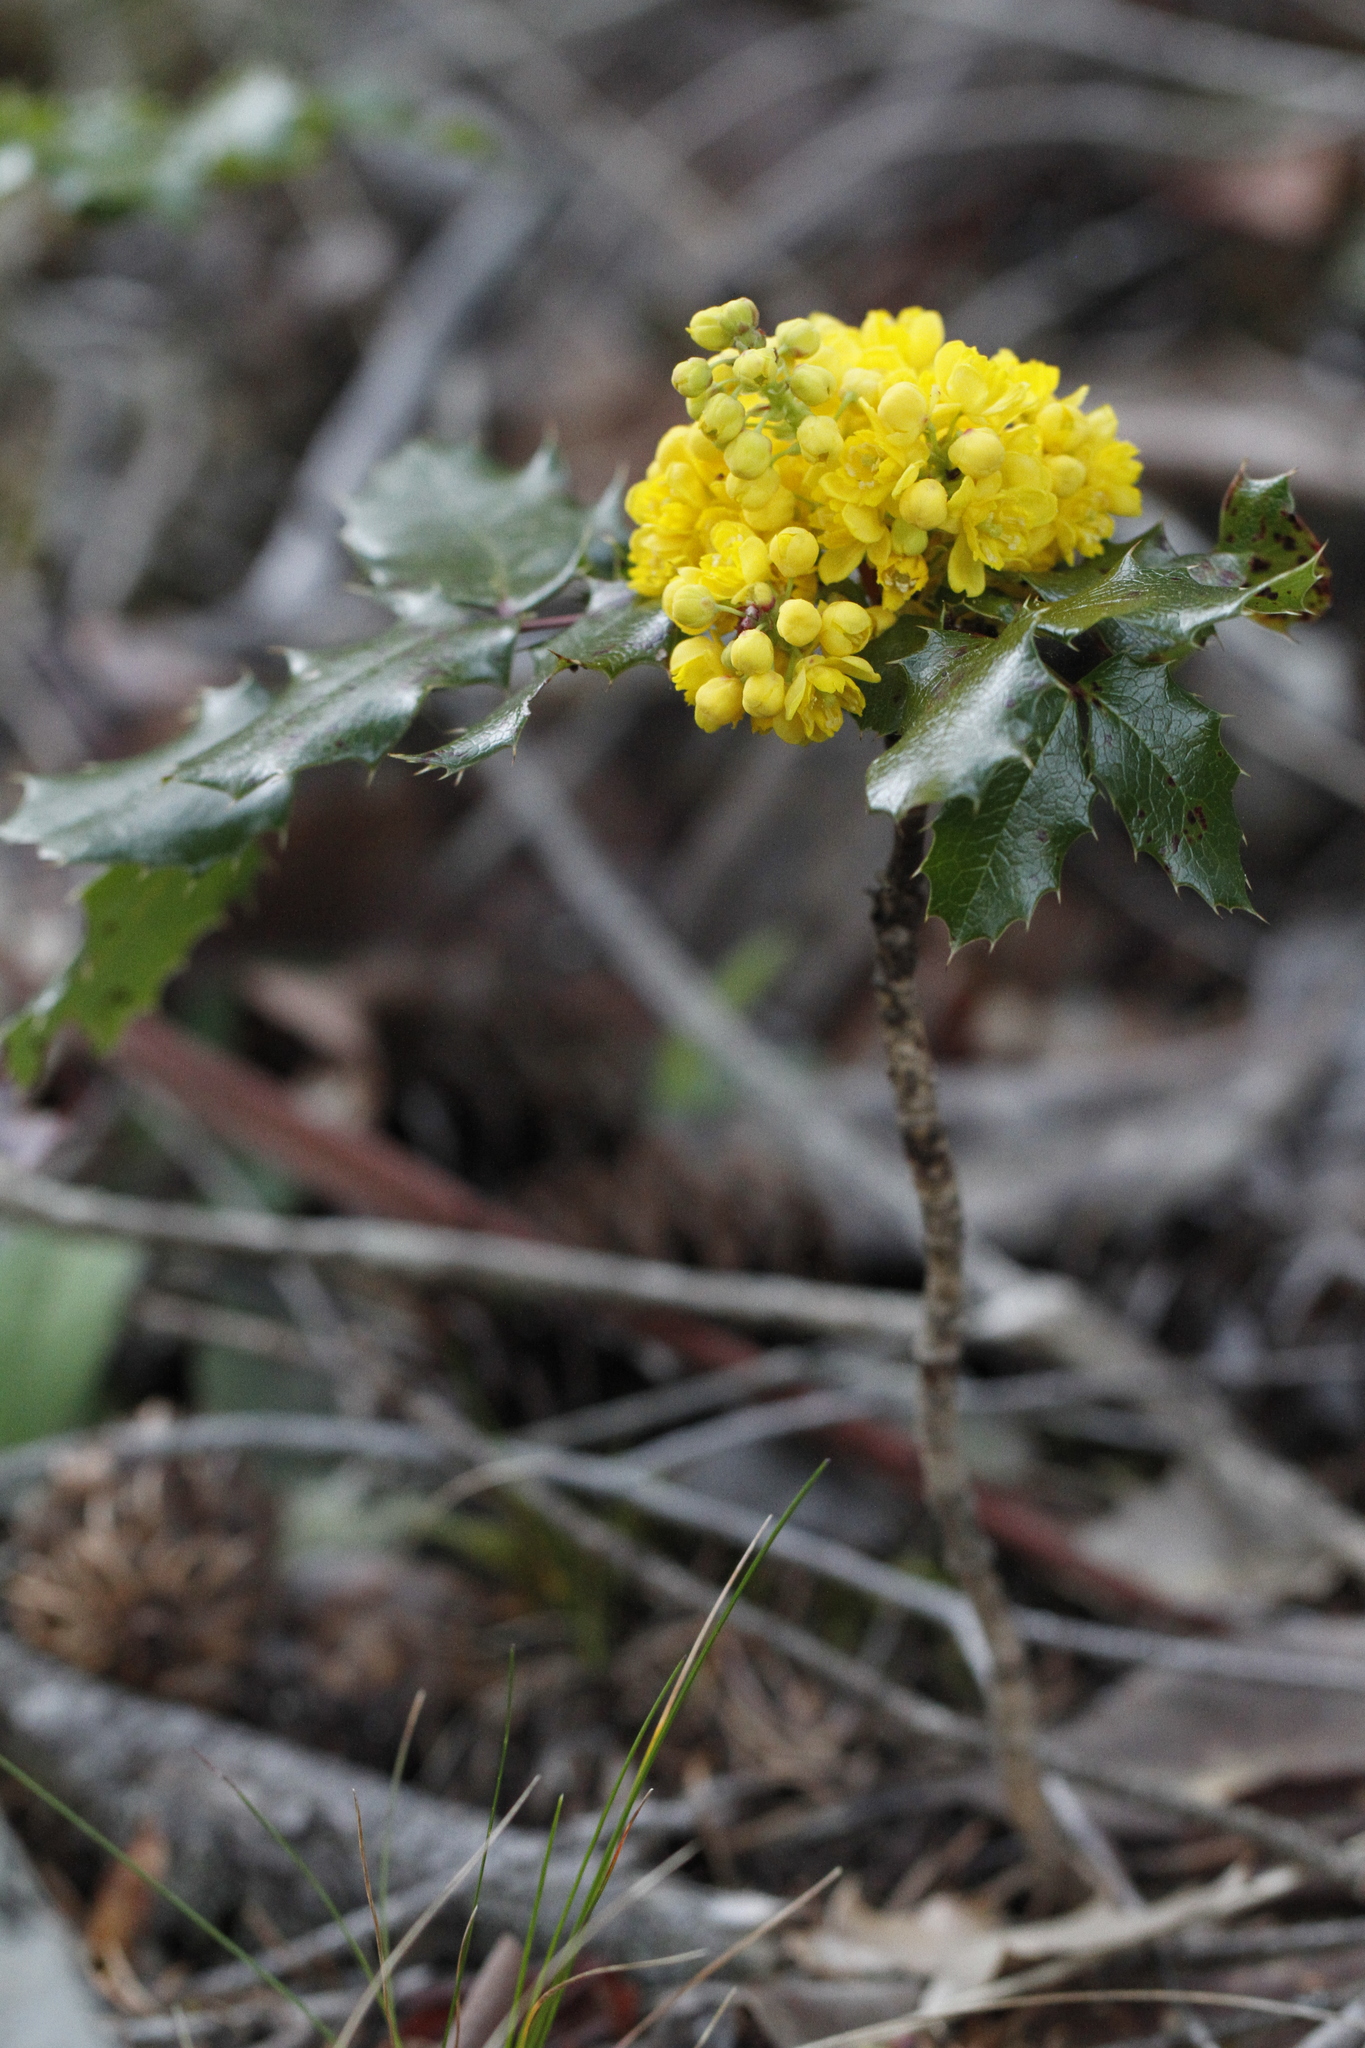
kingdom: Plantae
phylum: Tracheophyta
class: Magnoliopsida
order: Ranunculales
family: Berberidaceae
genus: Mahonia
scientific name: Mahonia aquifolium
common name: Oregon-grape
